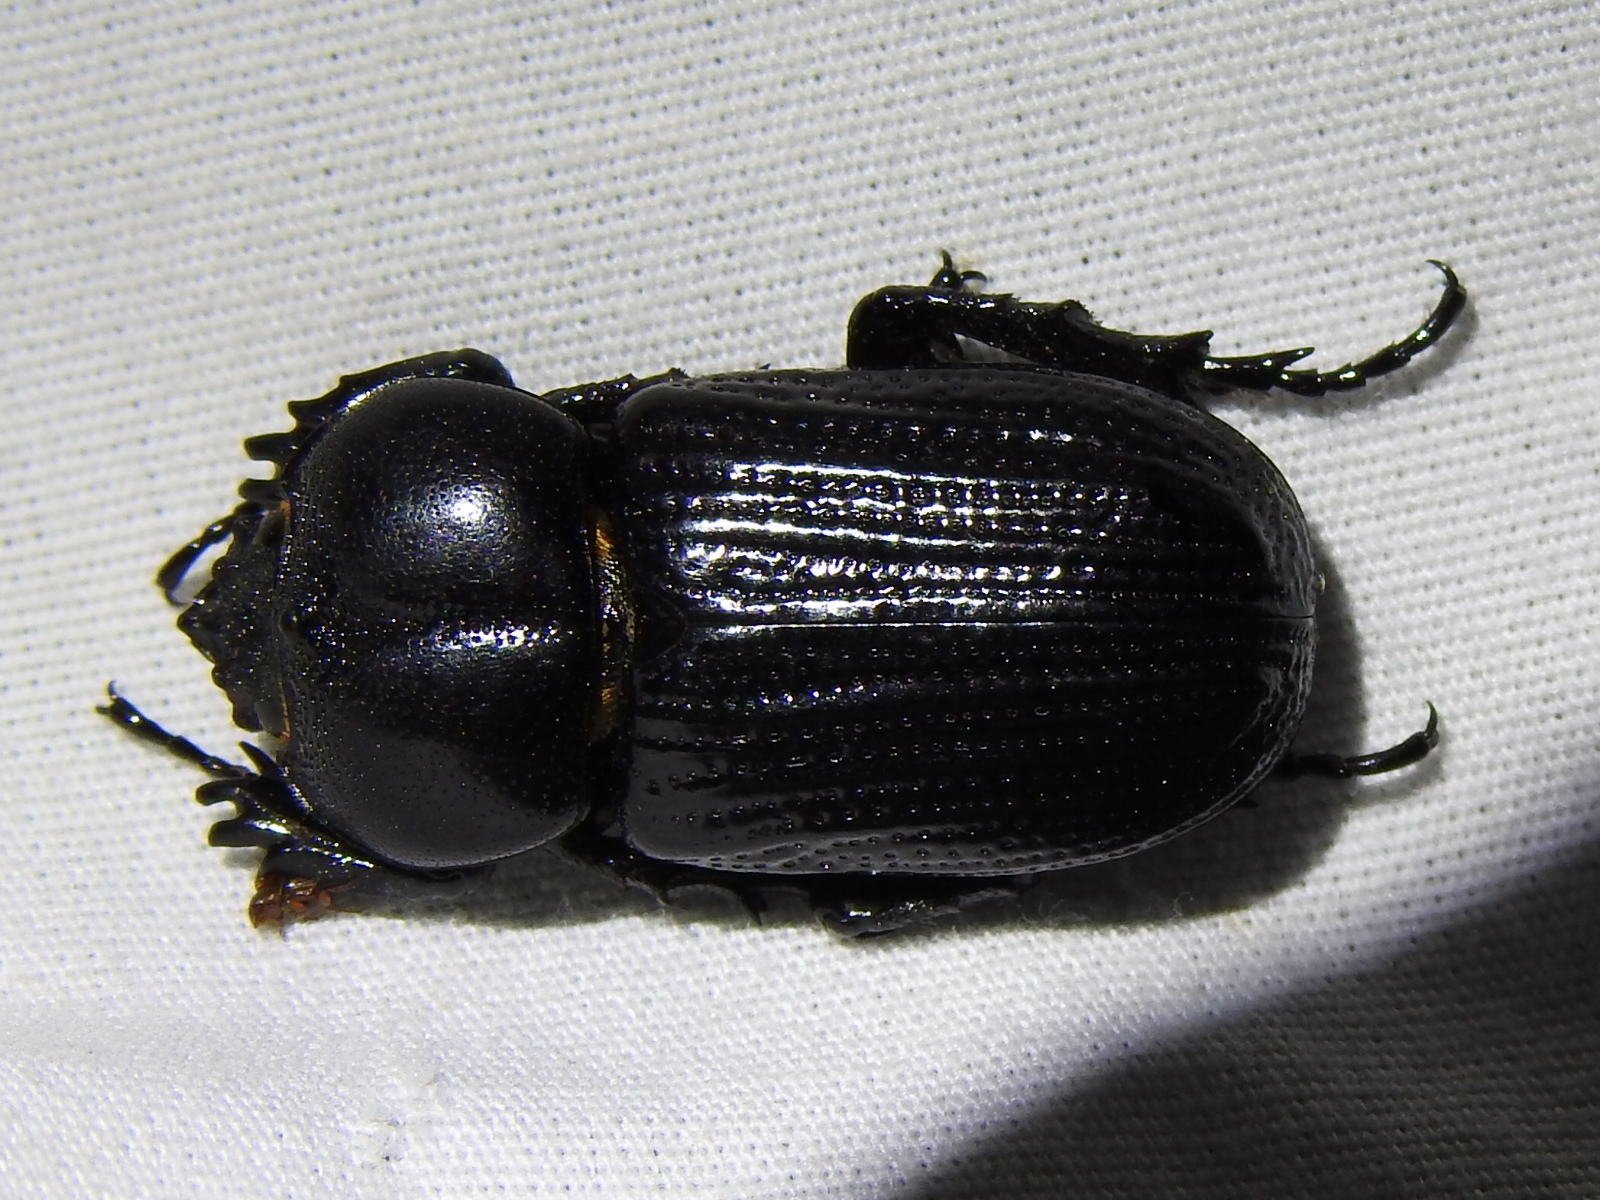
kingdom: Animalia
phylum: Arthropoda
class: Insecta
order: Coleoptera
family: Scarabaeidae
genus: Phileurus
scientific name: Phileurus valgus
